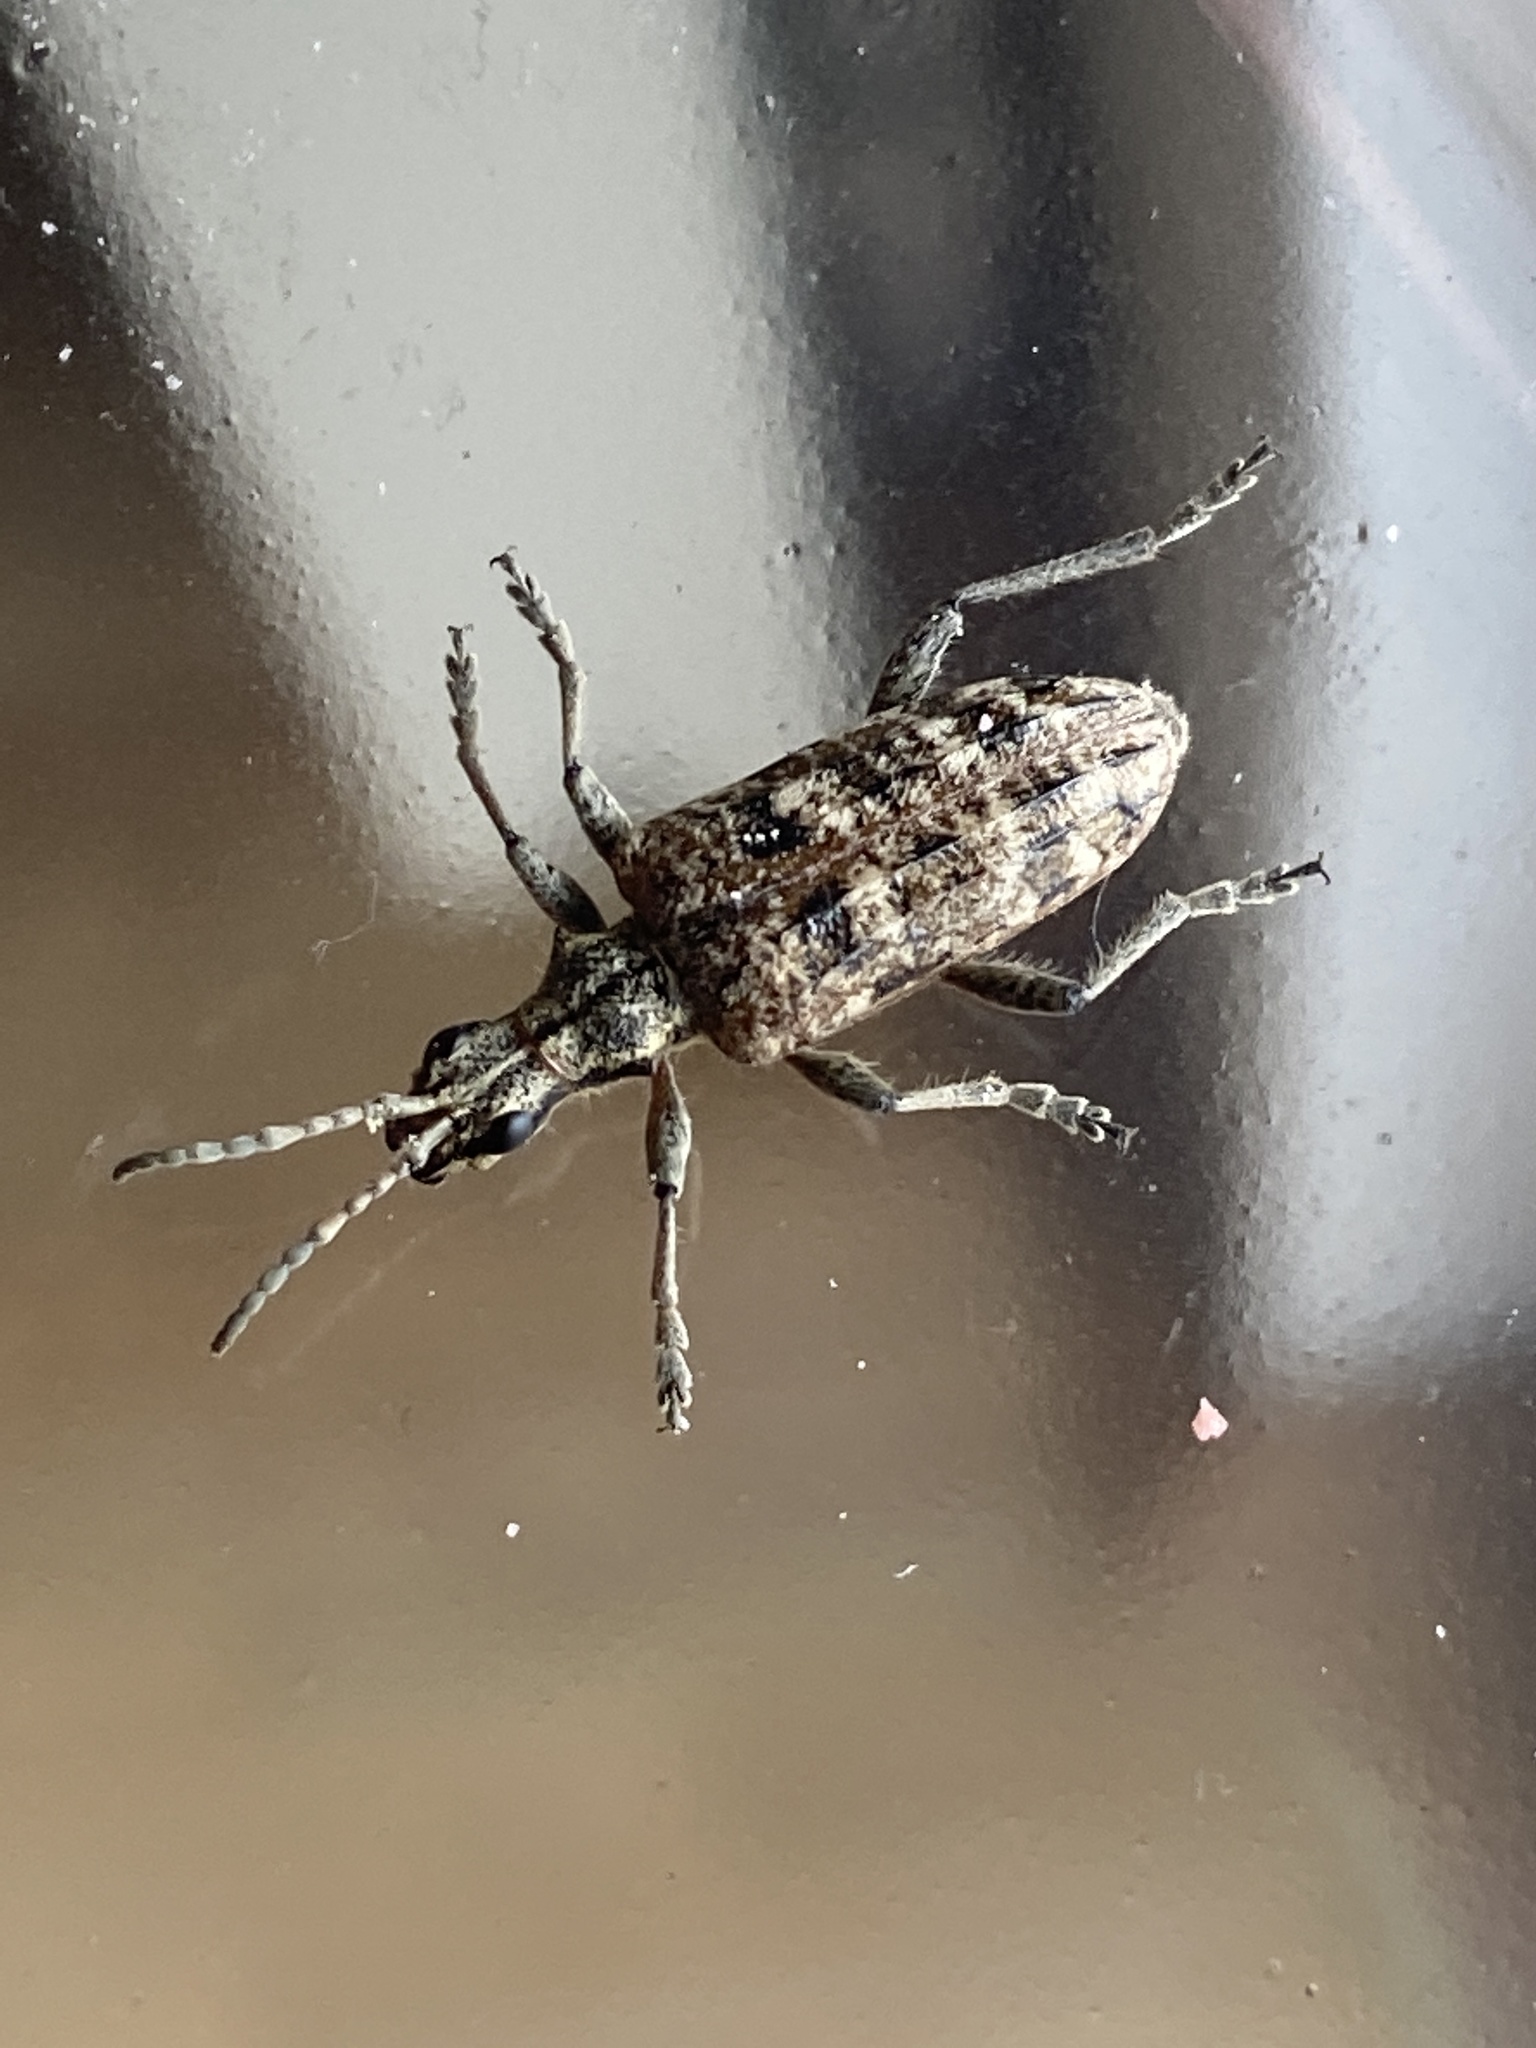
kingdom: Animalia
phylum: Arthropoda
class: Insecta
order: Coleoptera
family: Cerambycidae
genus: Rhagium
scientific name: Rhagium inquisitor
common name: Ribbed pine borer
